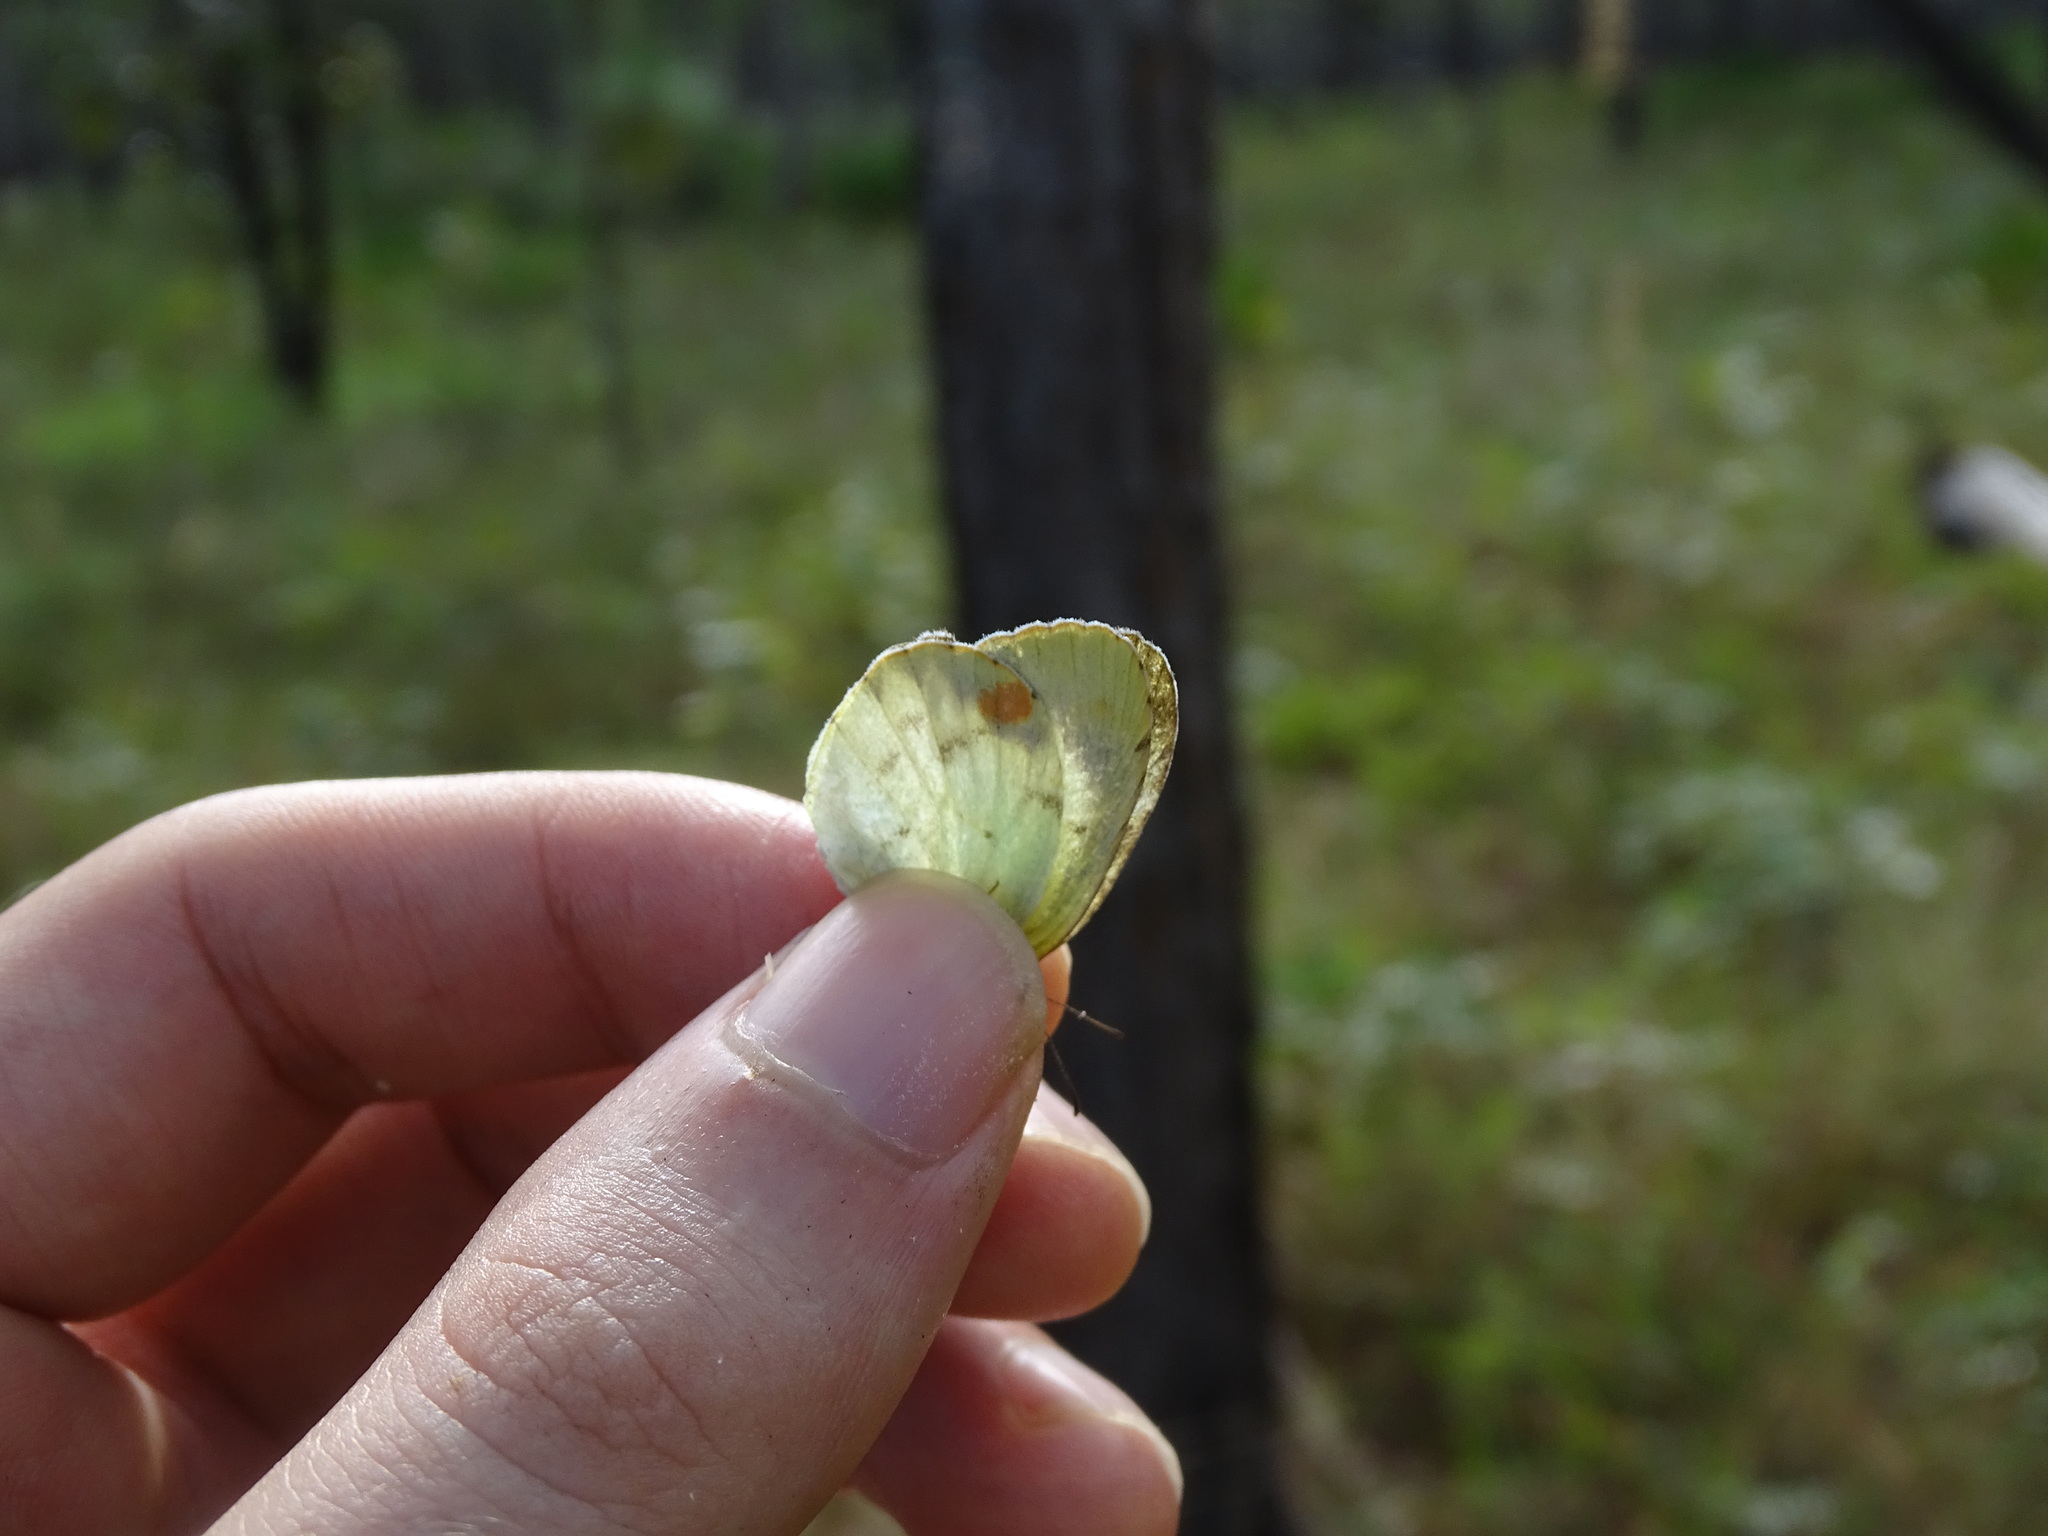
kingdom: Animalia
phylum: Arthropoda
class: Insecta
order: Lepidoptera
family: Pieridae
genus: Pyrisitia
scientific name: Pyrisitia lisa
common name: Little yellow
